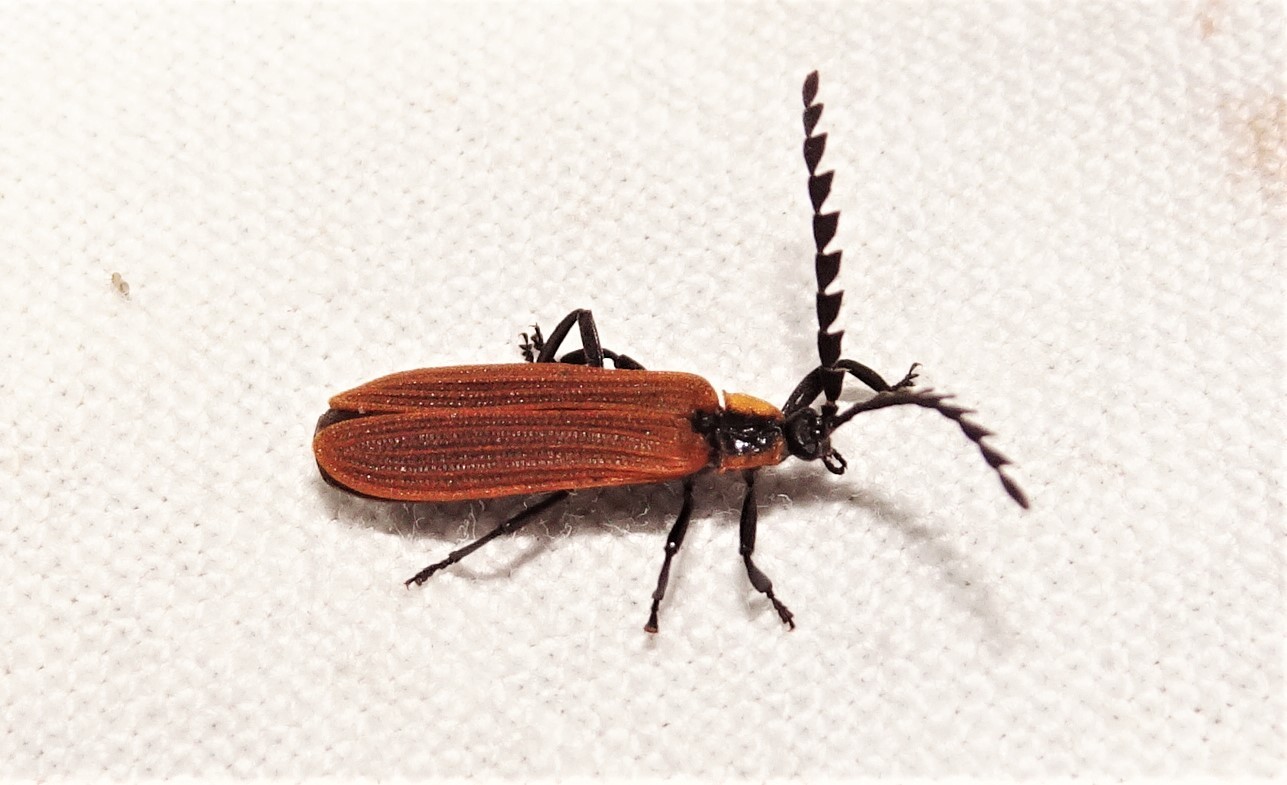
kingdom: Animalia
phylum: Arthropoda
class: Insecta
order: Coleoptera
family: Lycidae
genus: Trichalus
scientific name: Trichalus
